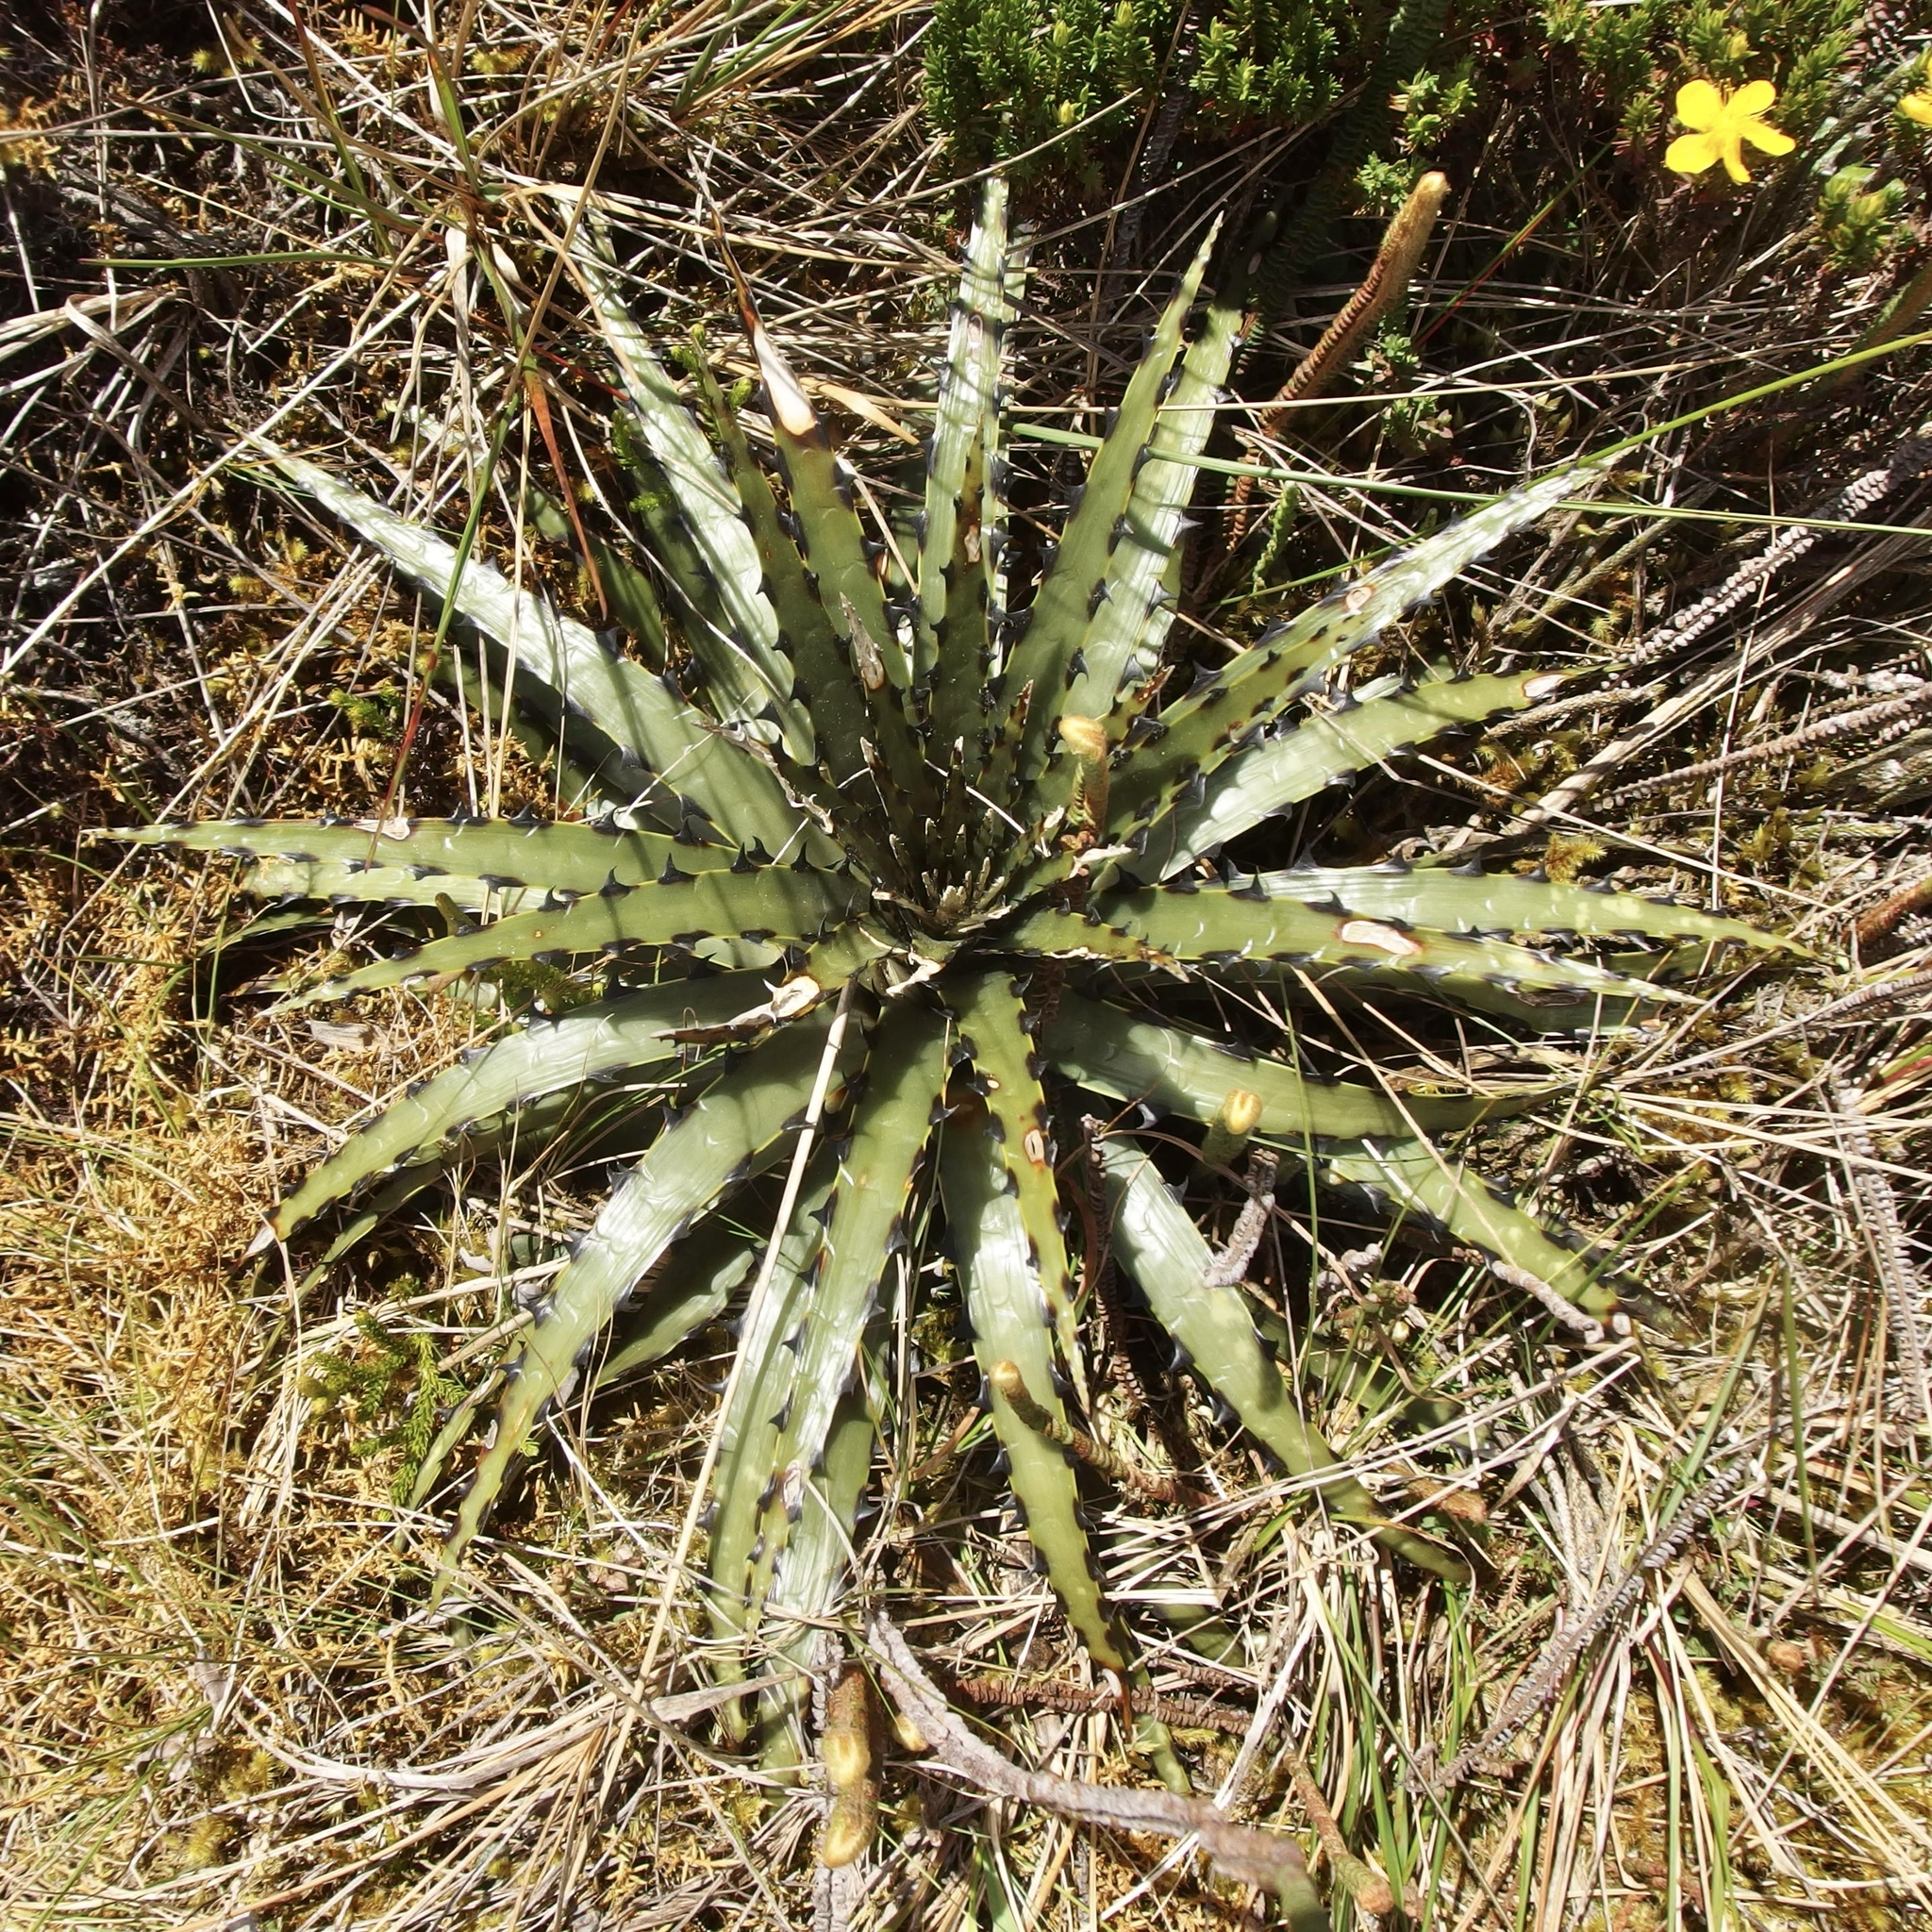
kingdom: Plantae
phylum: Tracheophyta
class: Liliopsida
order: Poales
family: Bromeliaceae
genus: Puya
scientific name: Puya cuevae
